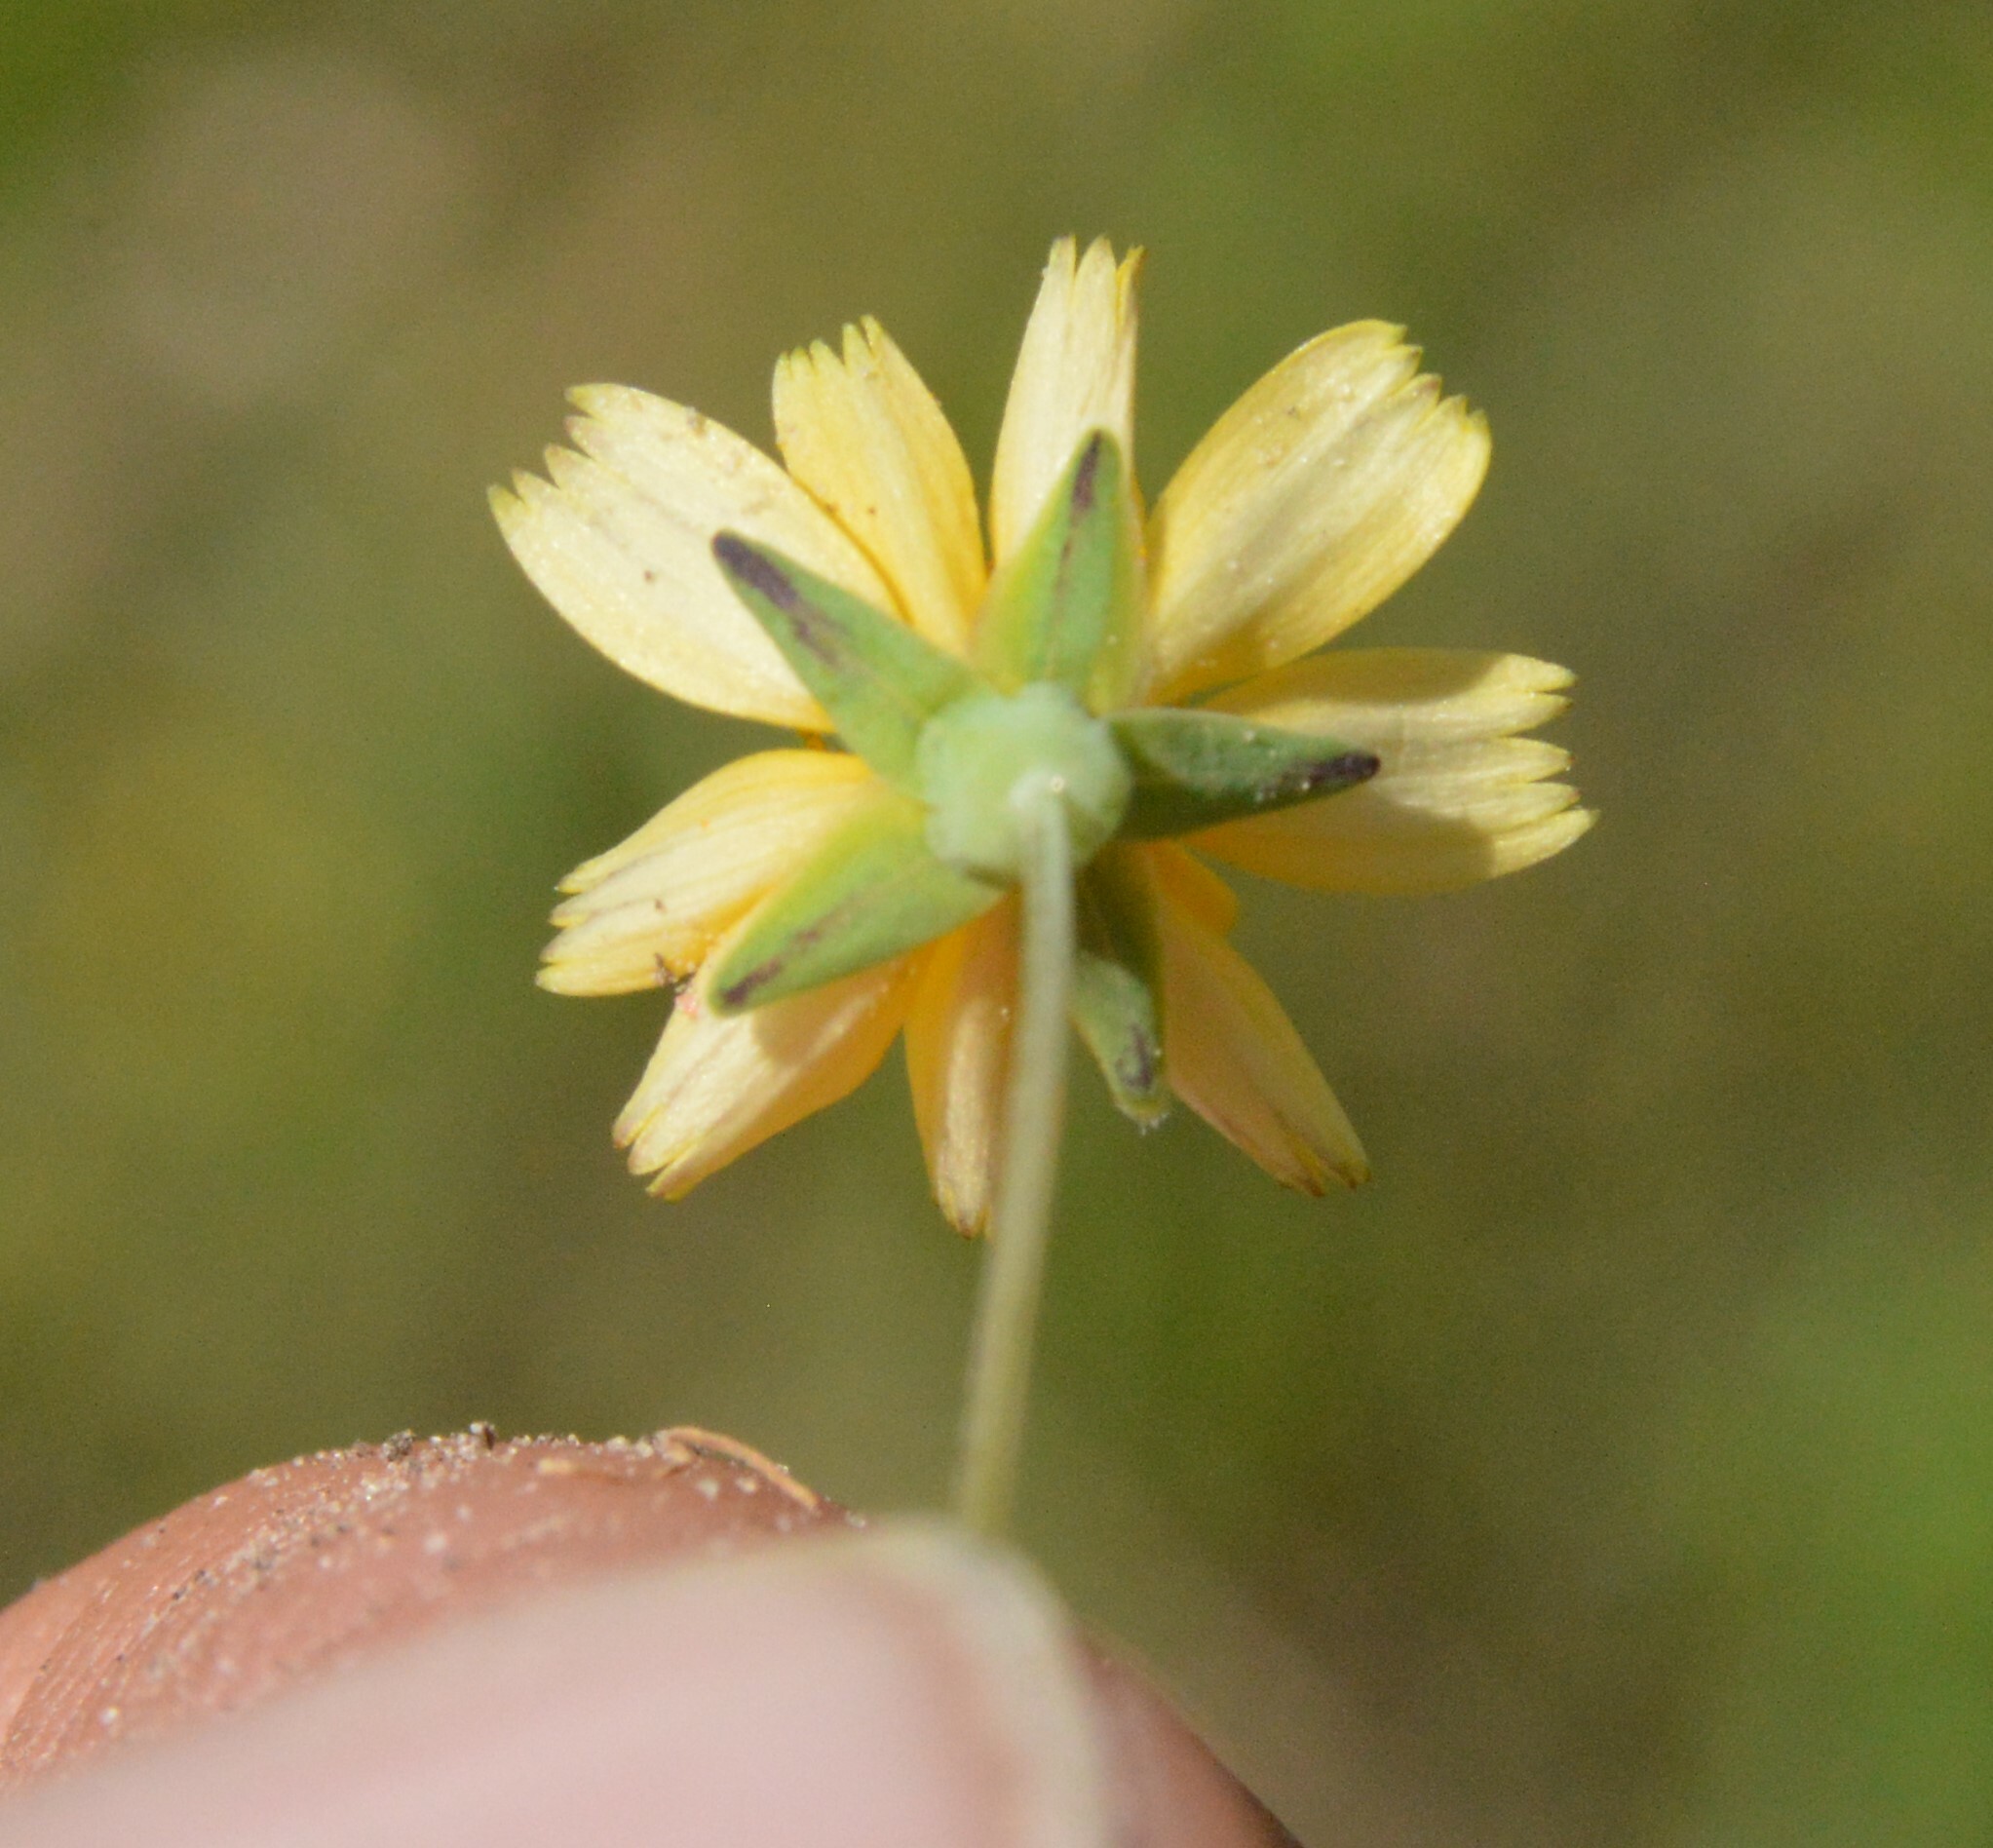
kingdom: Plantae
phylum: Tracheophyta
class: Magnoliopsida
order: Asterales
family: Asteraceae
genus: Krigia
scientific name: Krigia occidentalis
